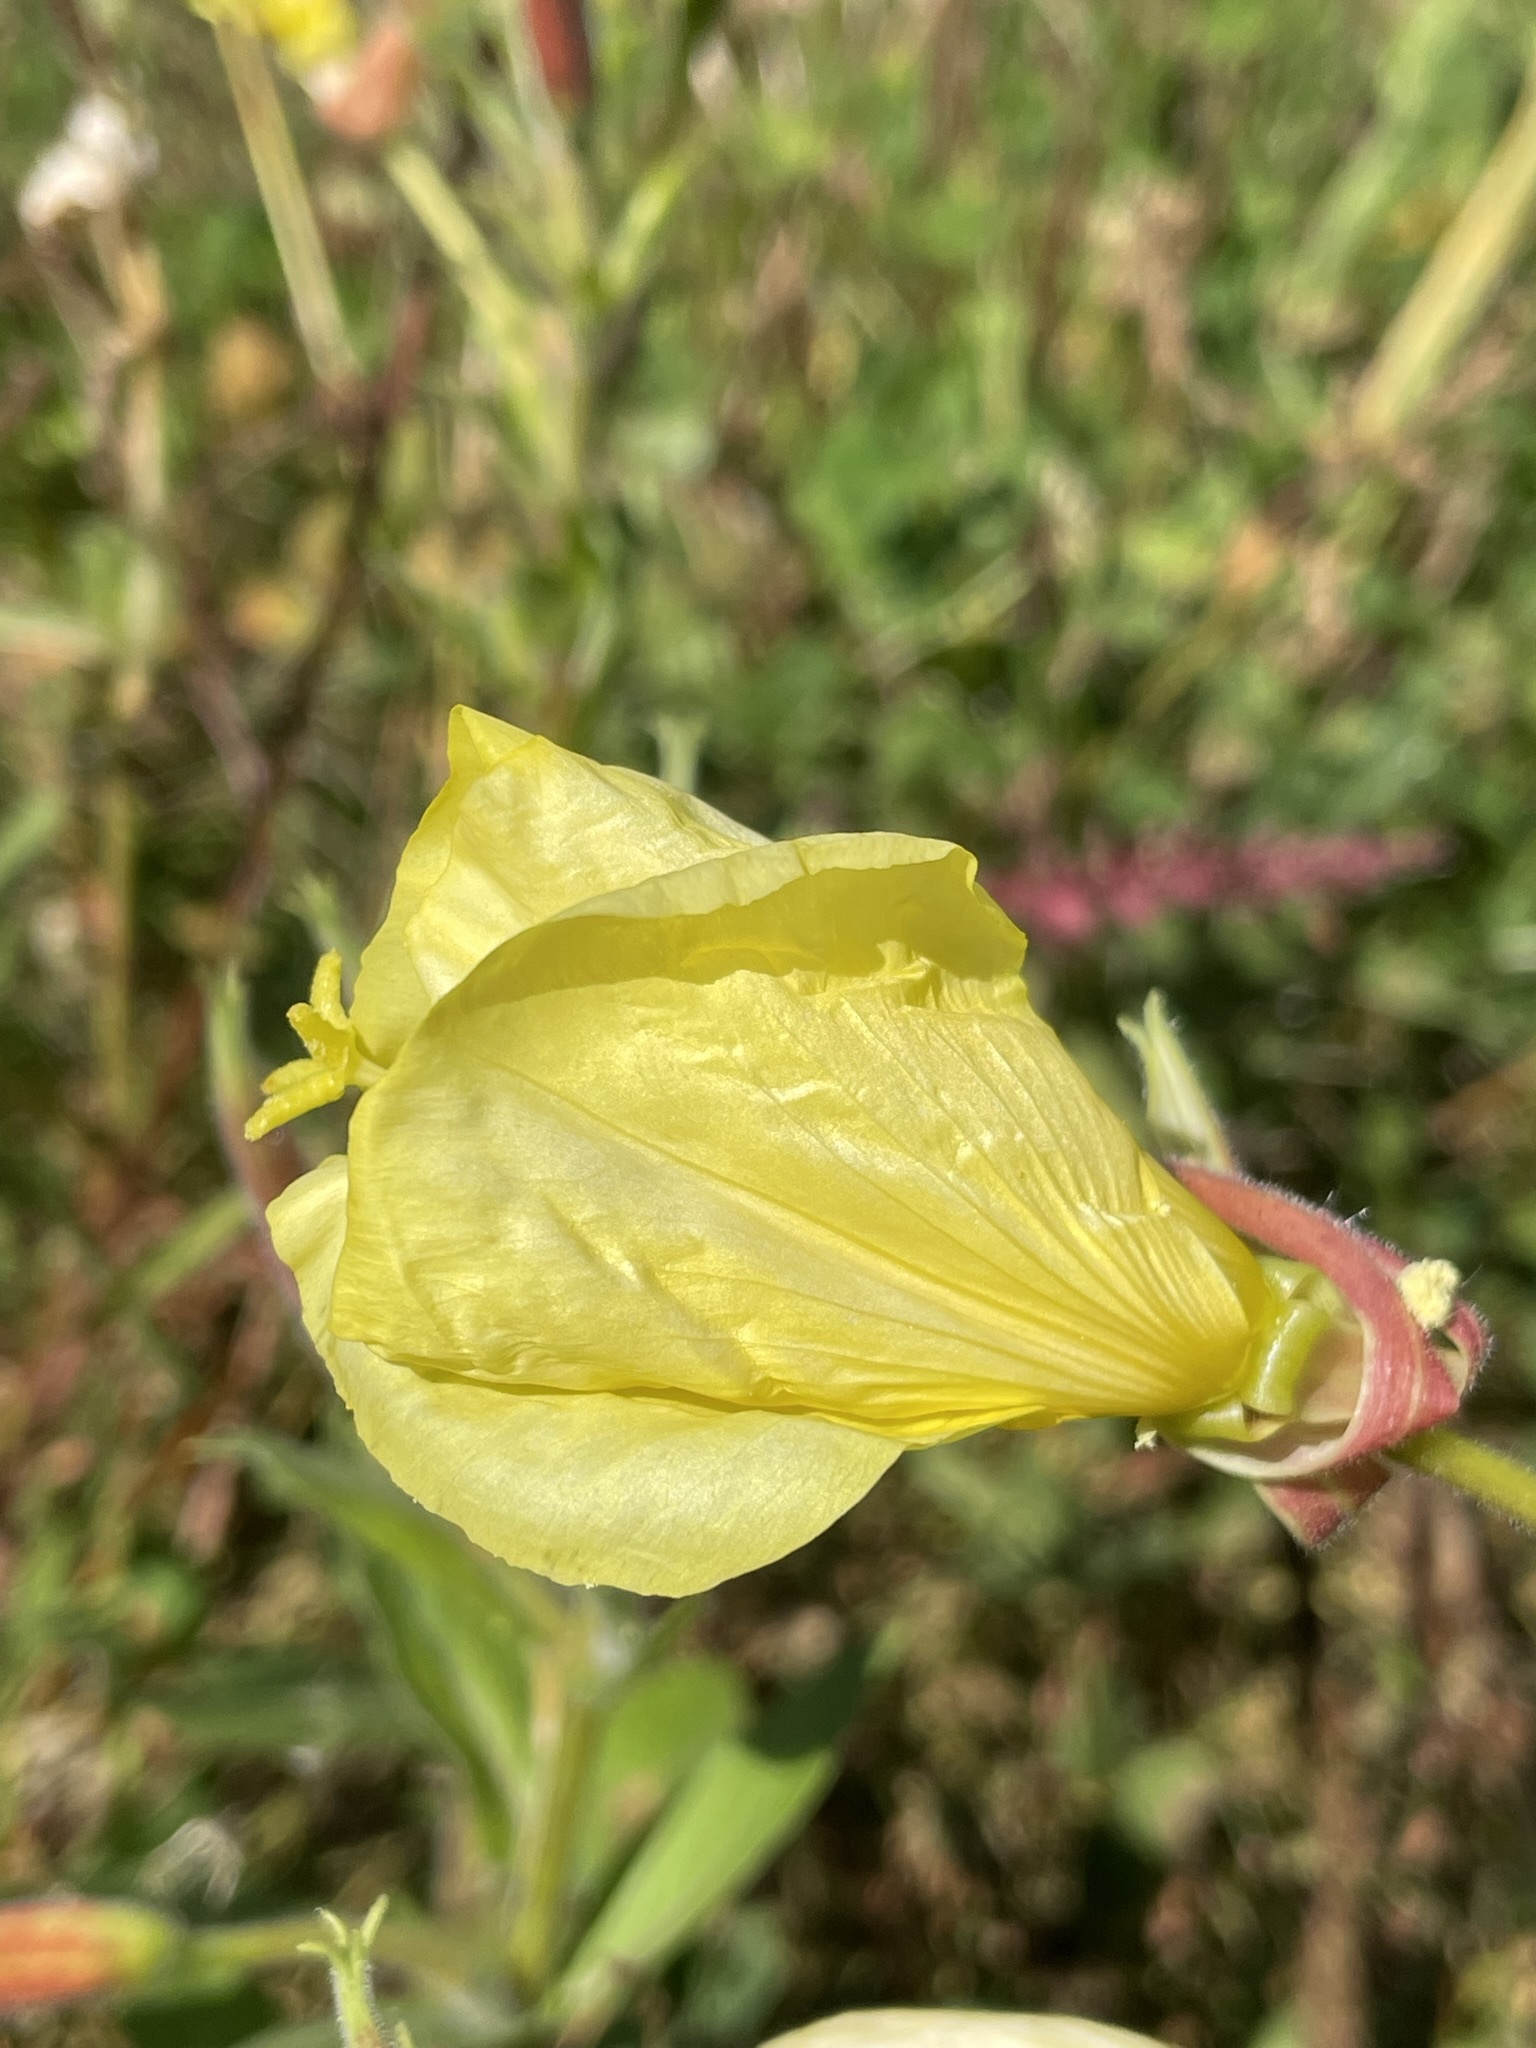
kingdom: Plantae
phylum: Tracheophyta
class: Magnoliopsida
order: Myrtales
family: Onagraceae
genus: Oenothera
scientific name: Oenothera glazioviana
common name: Large-flowered evening-primrose
